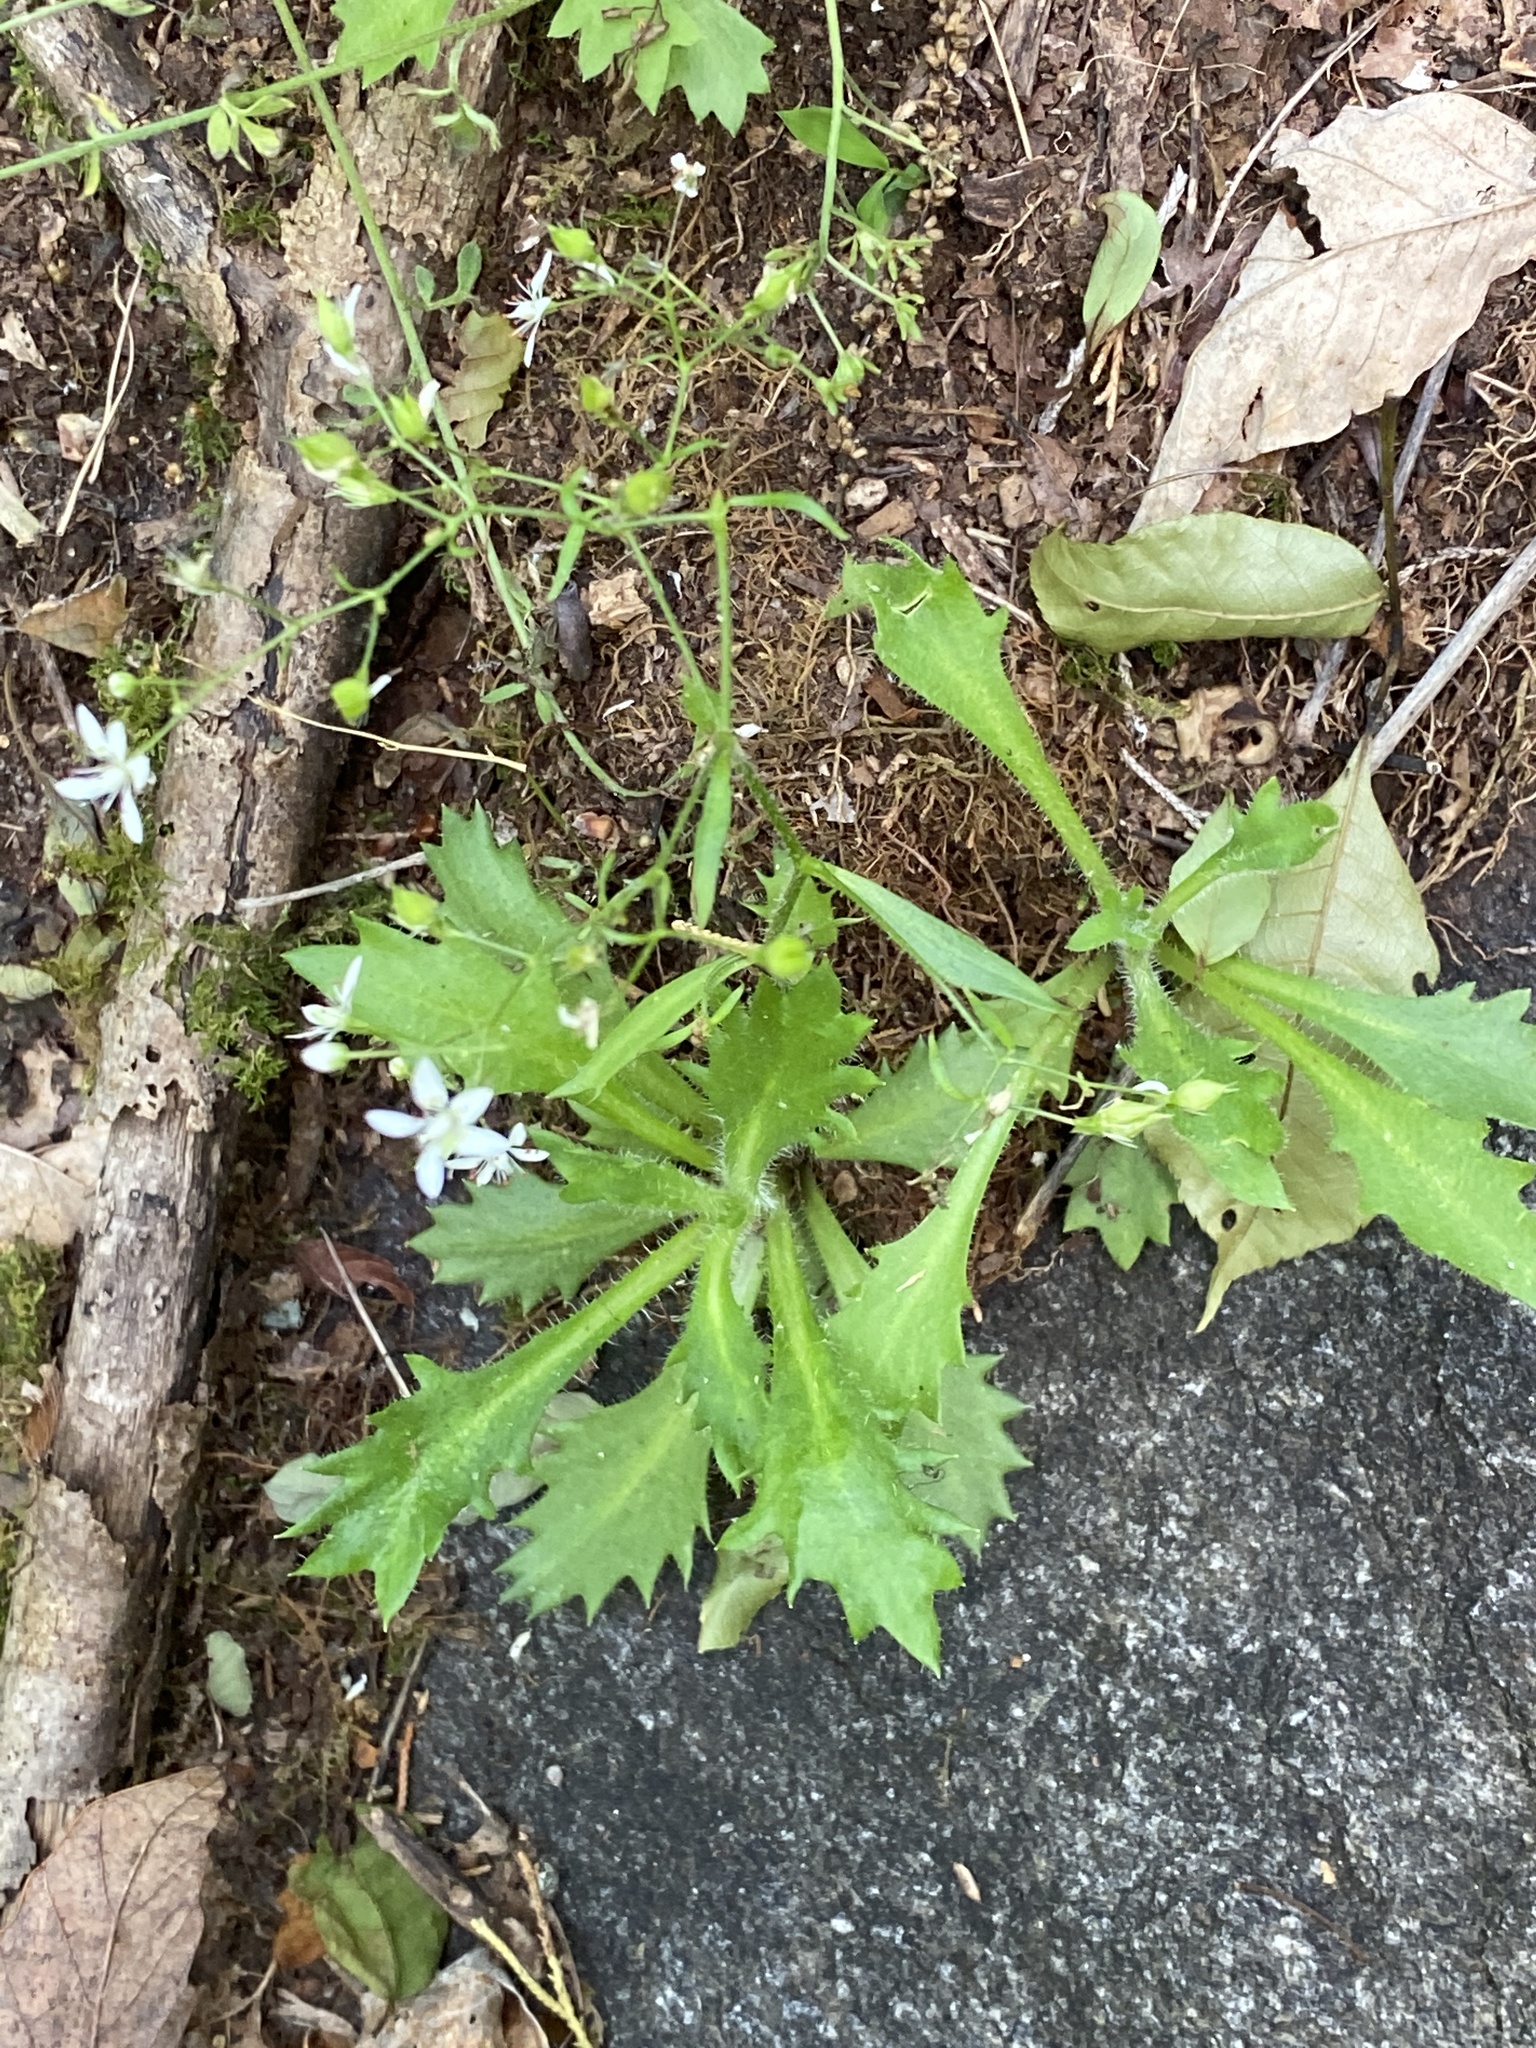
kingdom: Plantae
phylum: Tracheophyta
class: Magnoliopsida
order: Saxifragales
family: Saxifragaceae
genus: Micranthes
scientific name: Micranthes petiolaris
